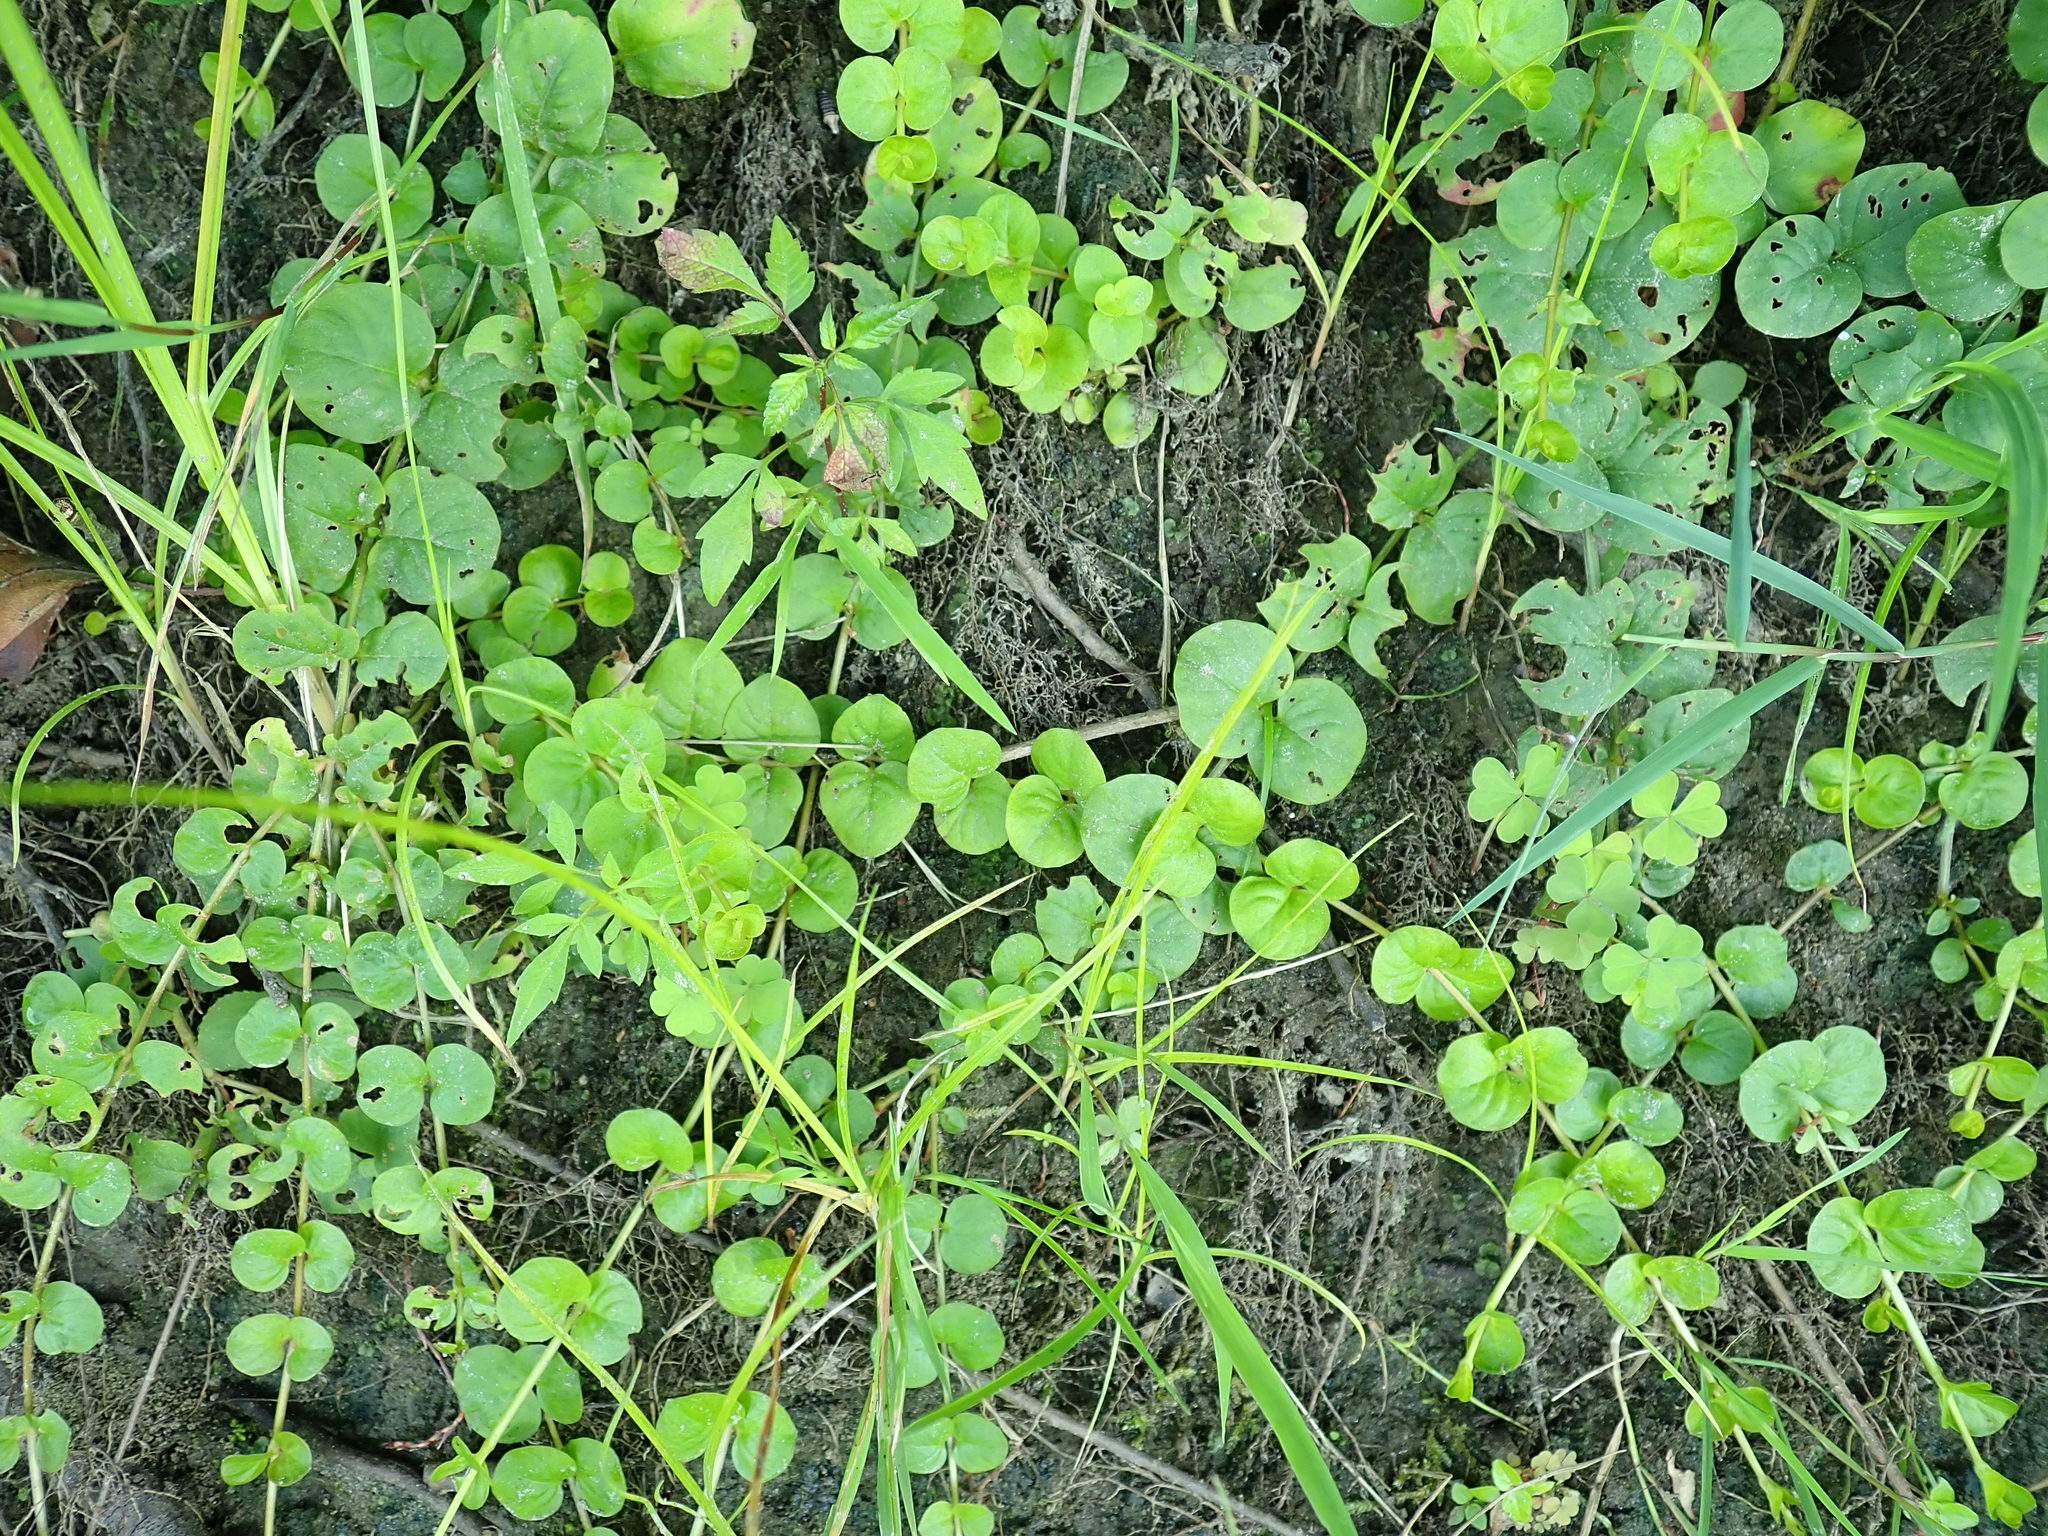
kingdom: Plantae
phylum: Tracheophyta
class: Magnoliopsida
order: Ericales
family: Primulaceae
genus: Lysimachia
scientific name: Lysimachia nummularia
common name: Moneywort
